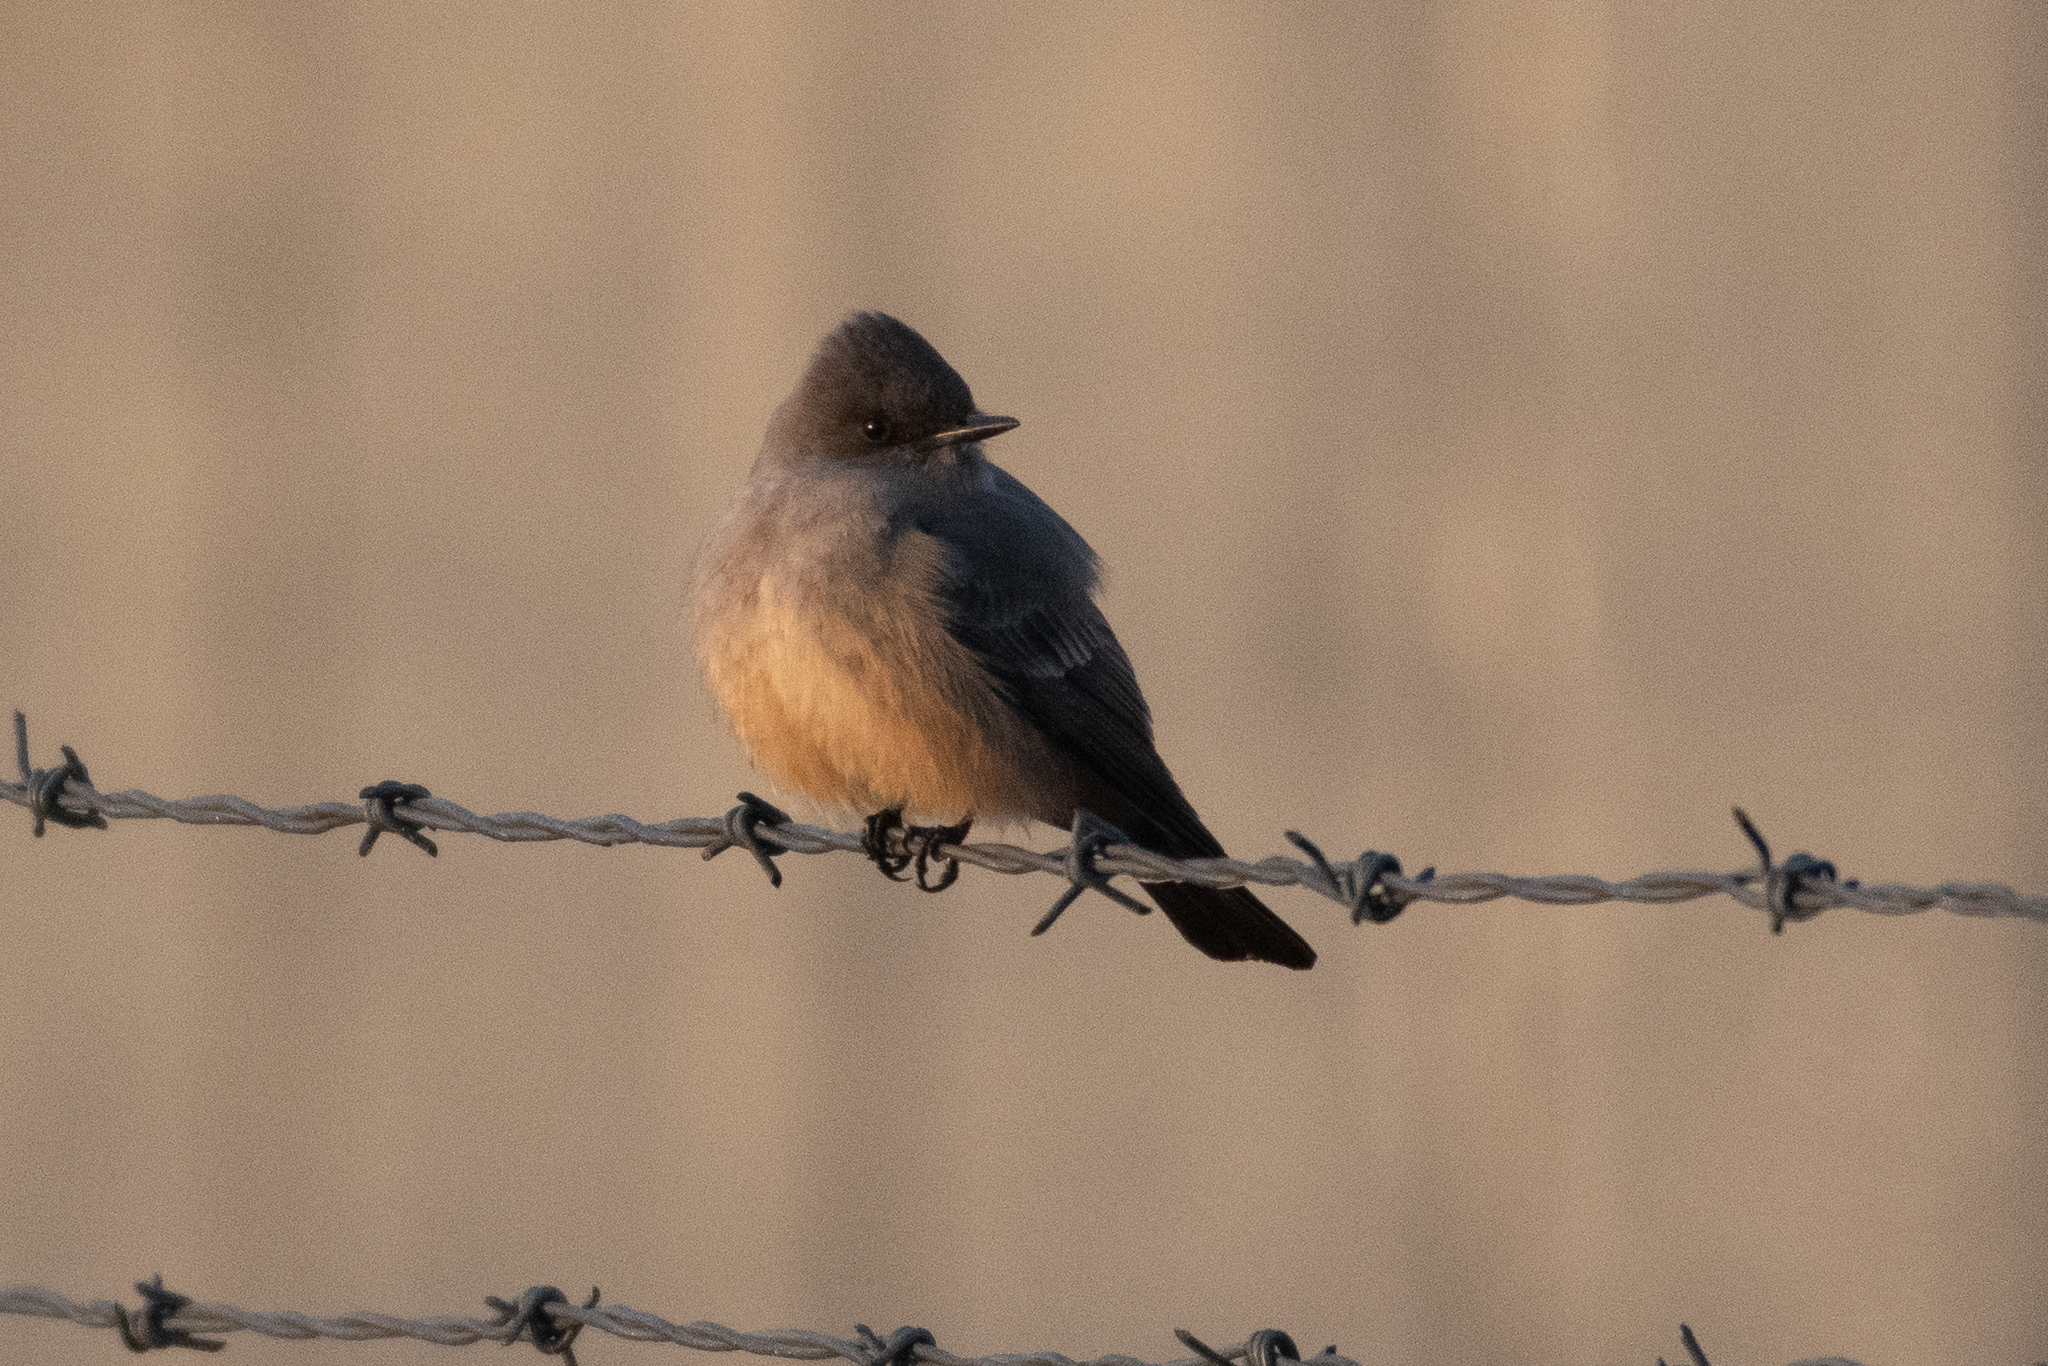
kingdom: Animalia
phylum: Chordata
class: Aves
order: Passeriformes
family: Tyrannidae
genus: Sayornis
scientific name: Sayornis saya
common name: Say's phoebe
